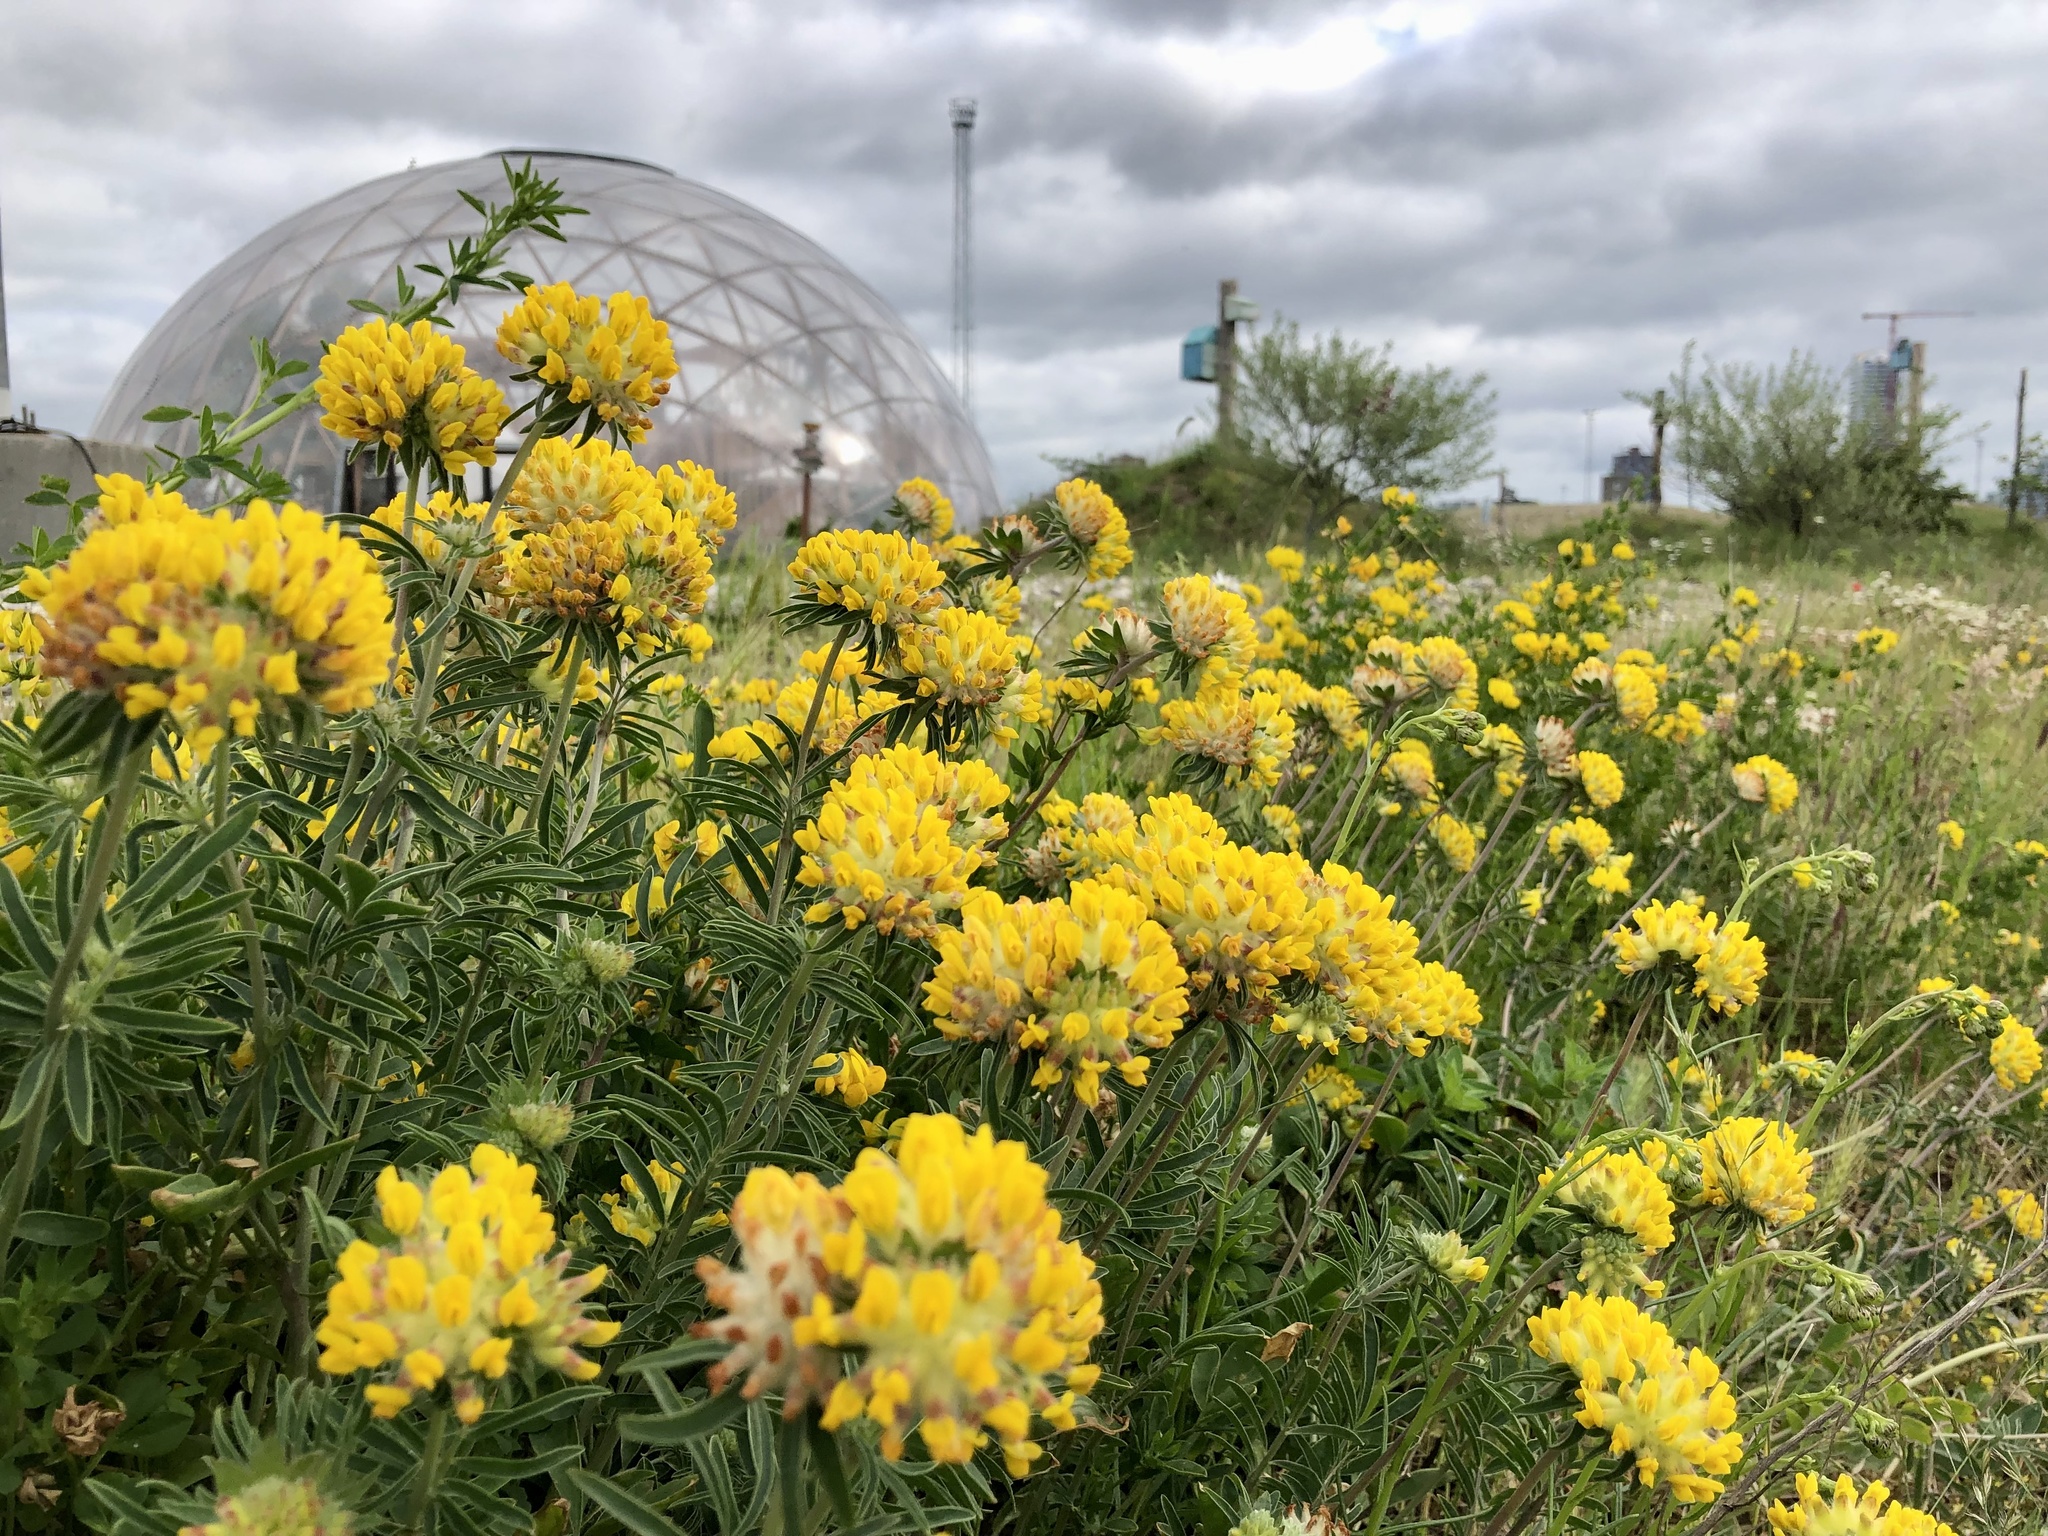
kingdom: Plantae
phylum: Tracheophyta
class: Magnoliopsida
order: Fabales
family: Fabaceae
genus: Anthyllis
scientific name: Anthyllis vulneraria
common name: Kidney vetch
